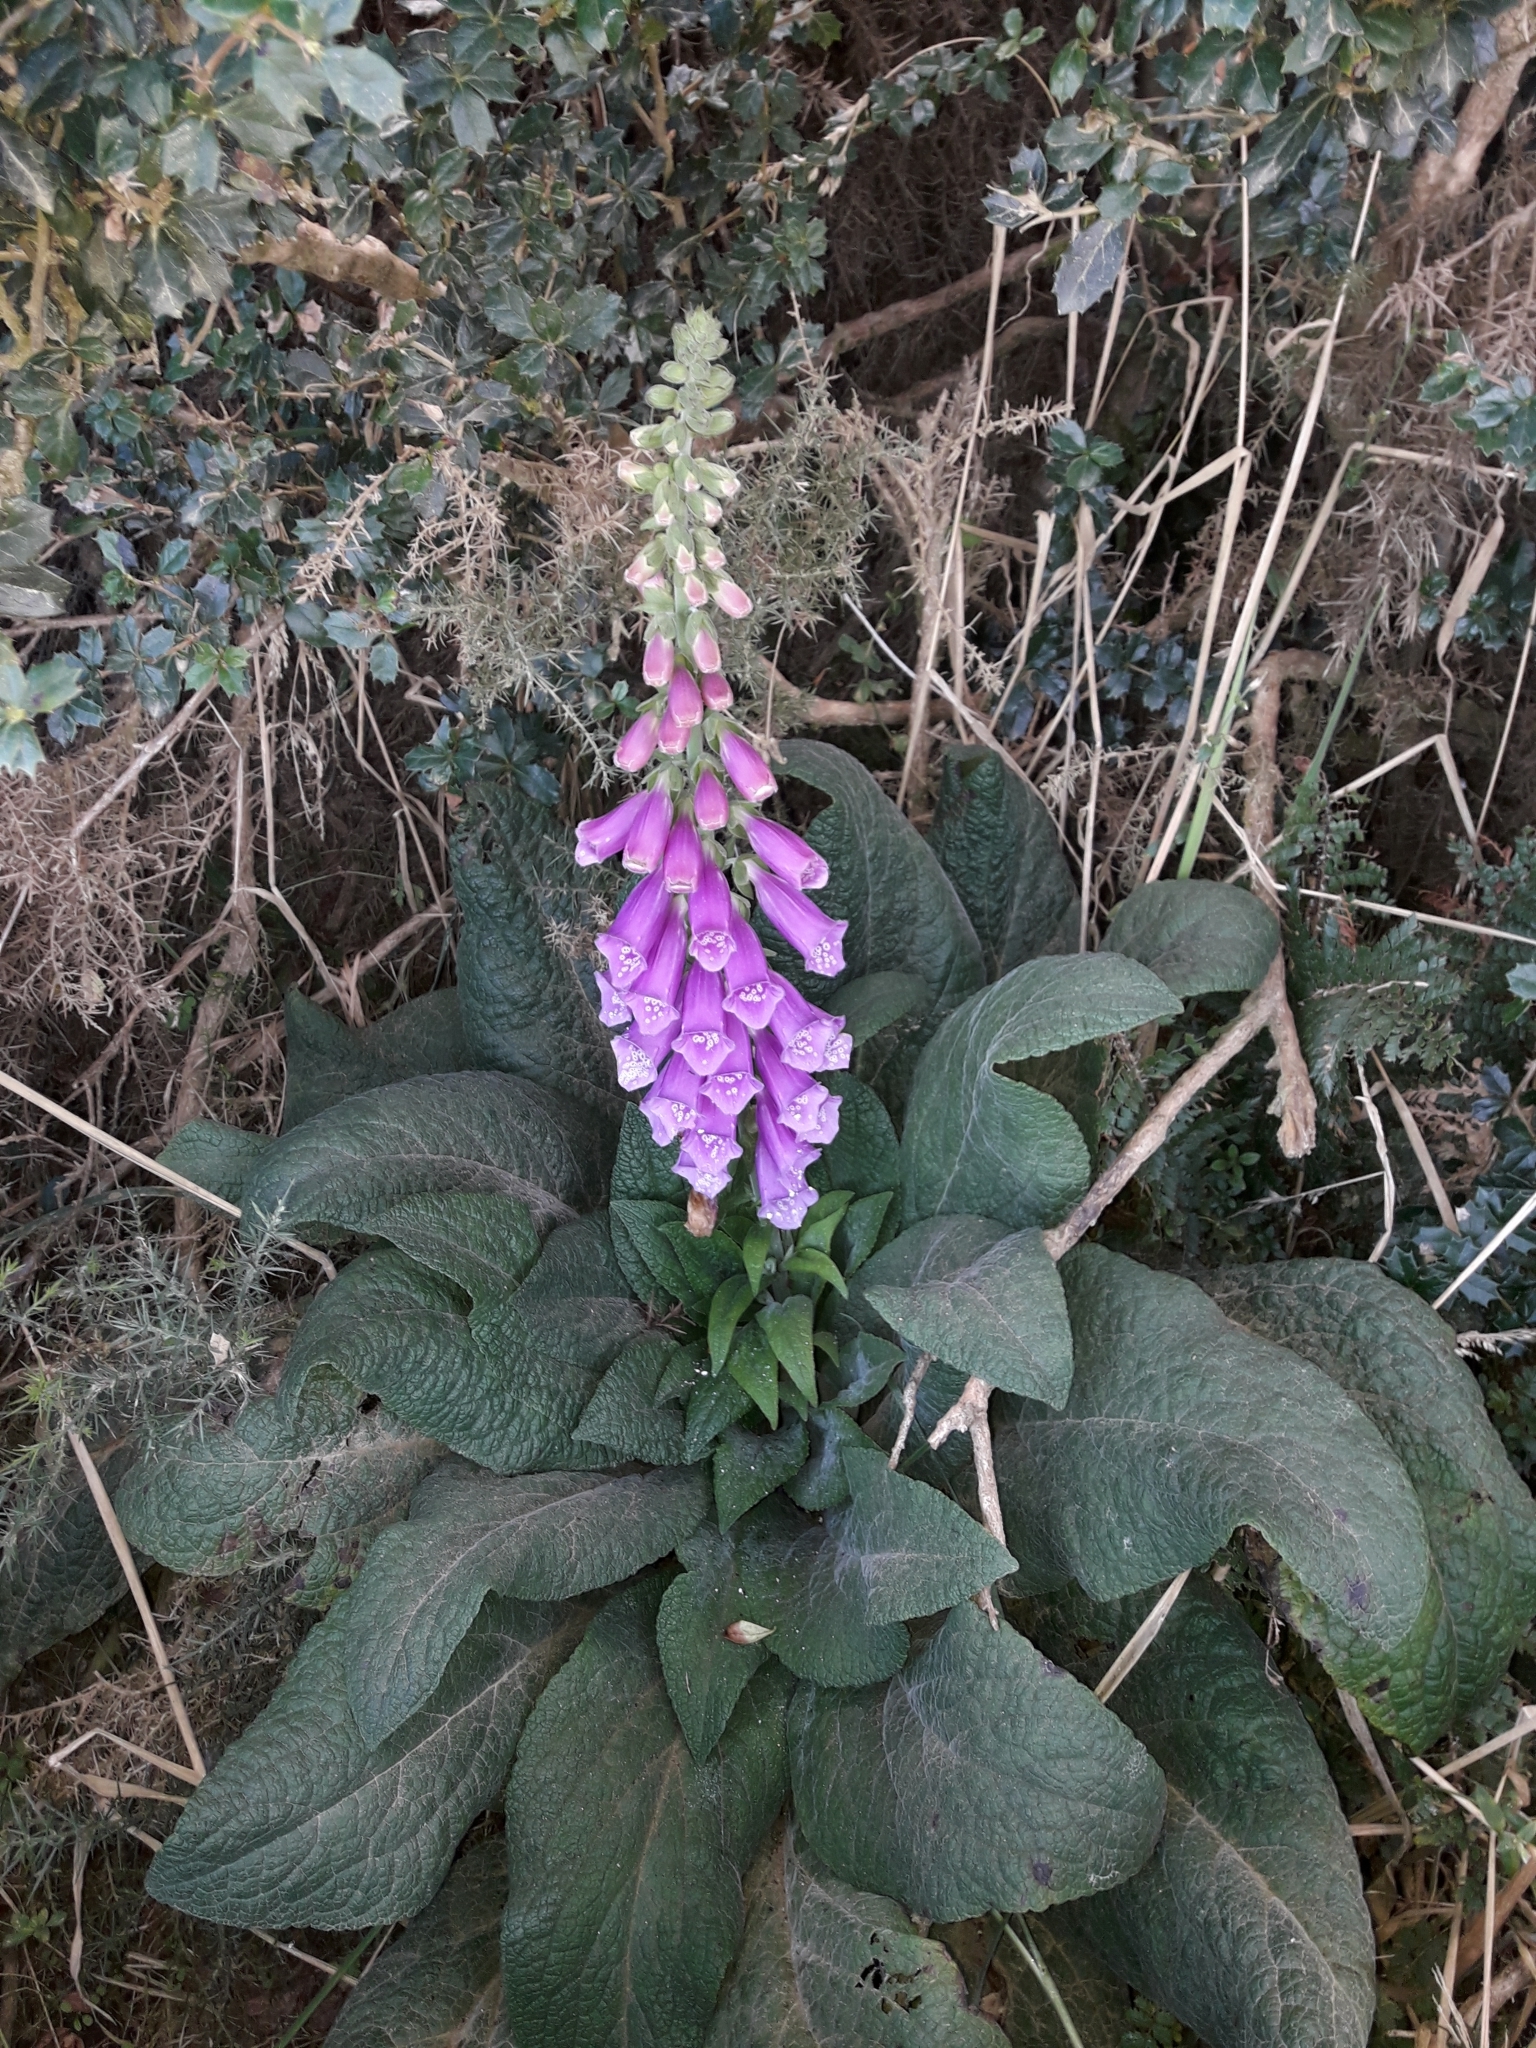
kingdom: Plantae
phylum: Tracheophyta
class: Magnoliopsida
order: Lamiales
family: Plantaginaceae
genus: Digitalis
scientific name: Digitalis purpurea
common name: Foxglove
